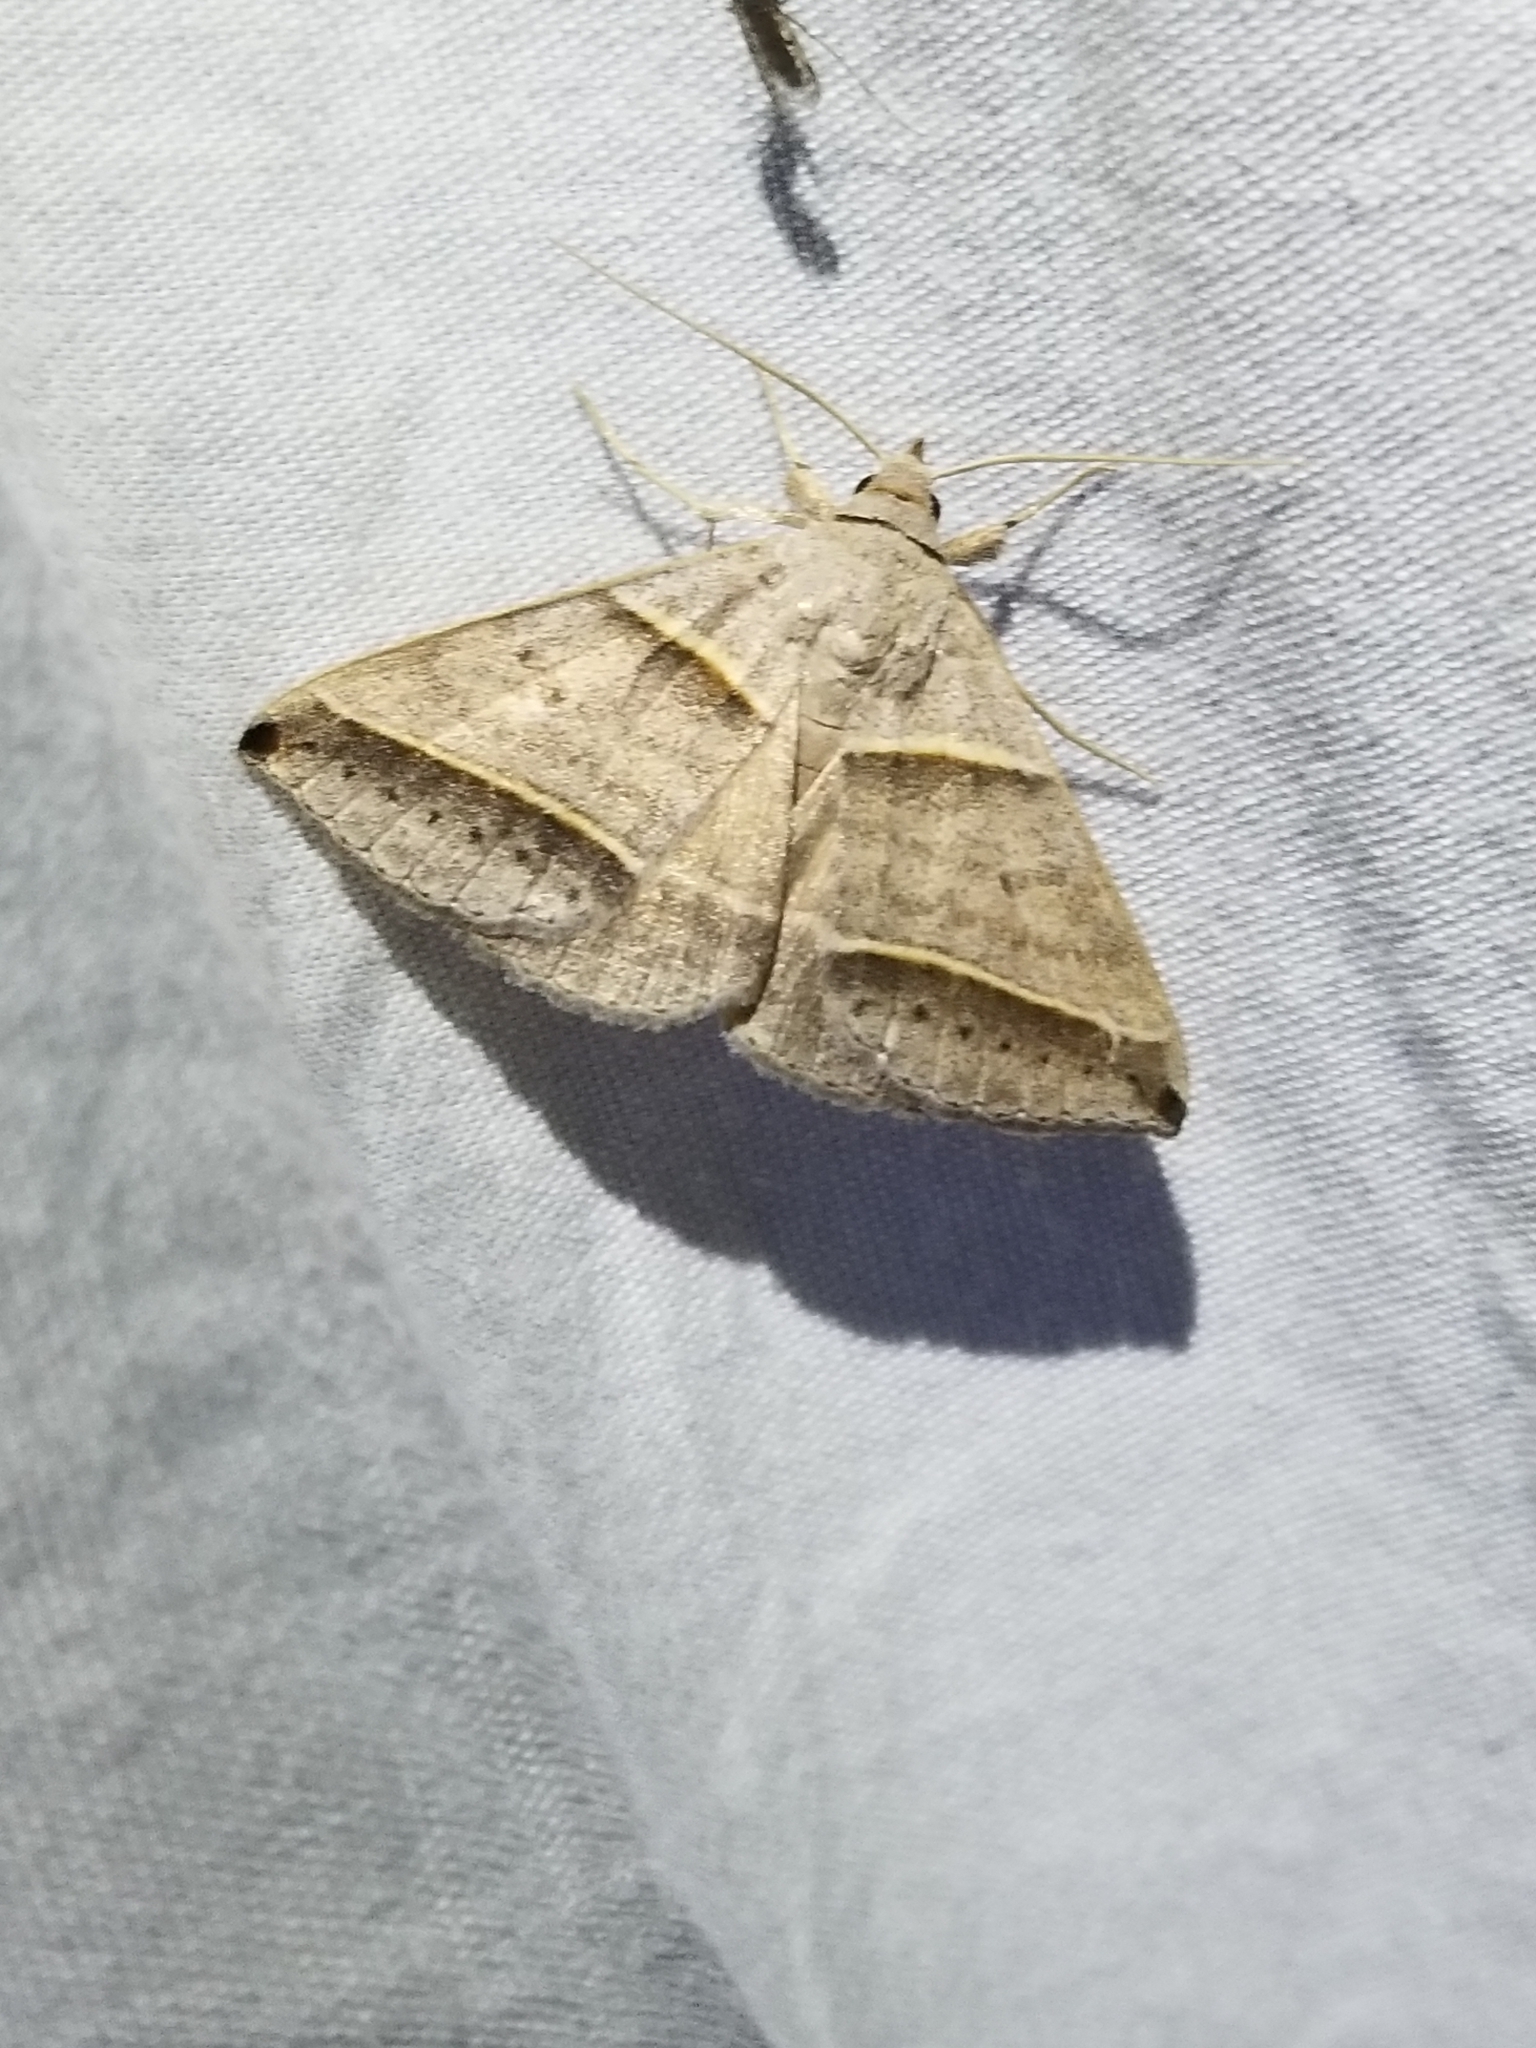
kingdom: Animalia
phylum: Arthropoda
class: Insecta
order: Lepidoptera
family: Erebidae
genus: Ptichodis
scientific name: Ptichodis vinculum
